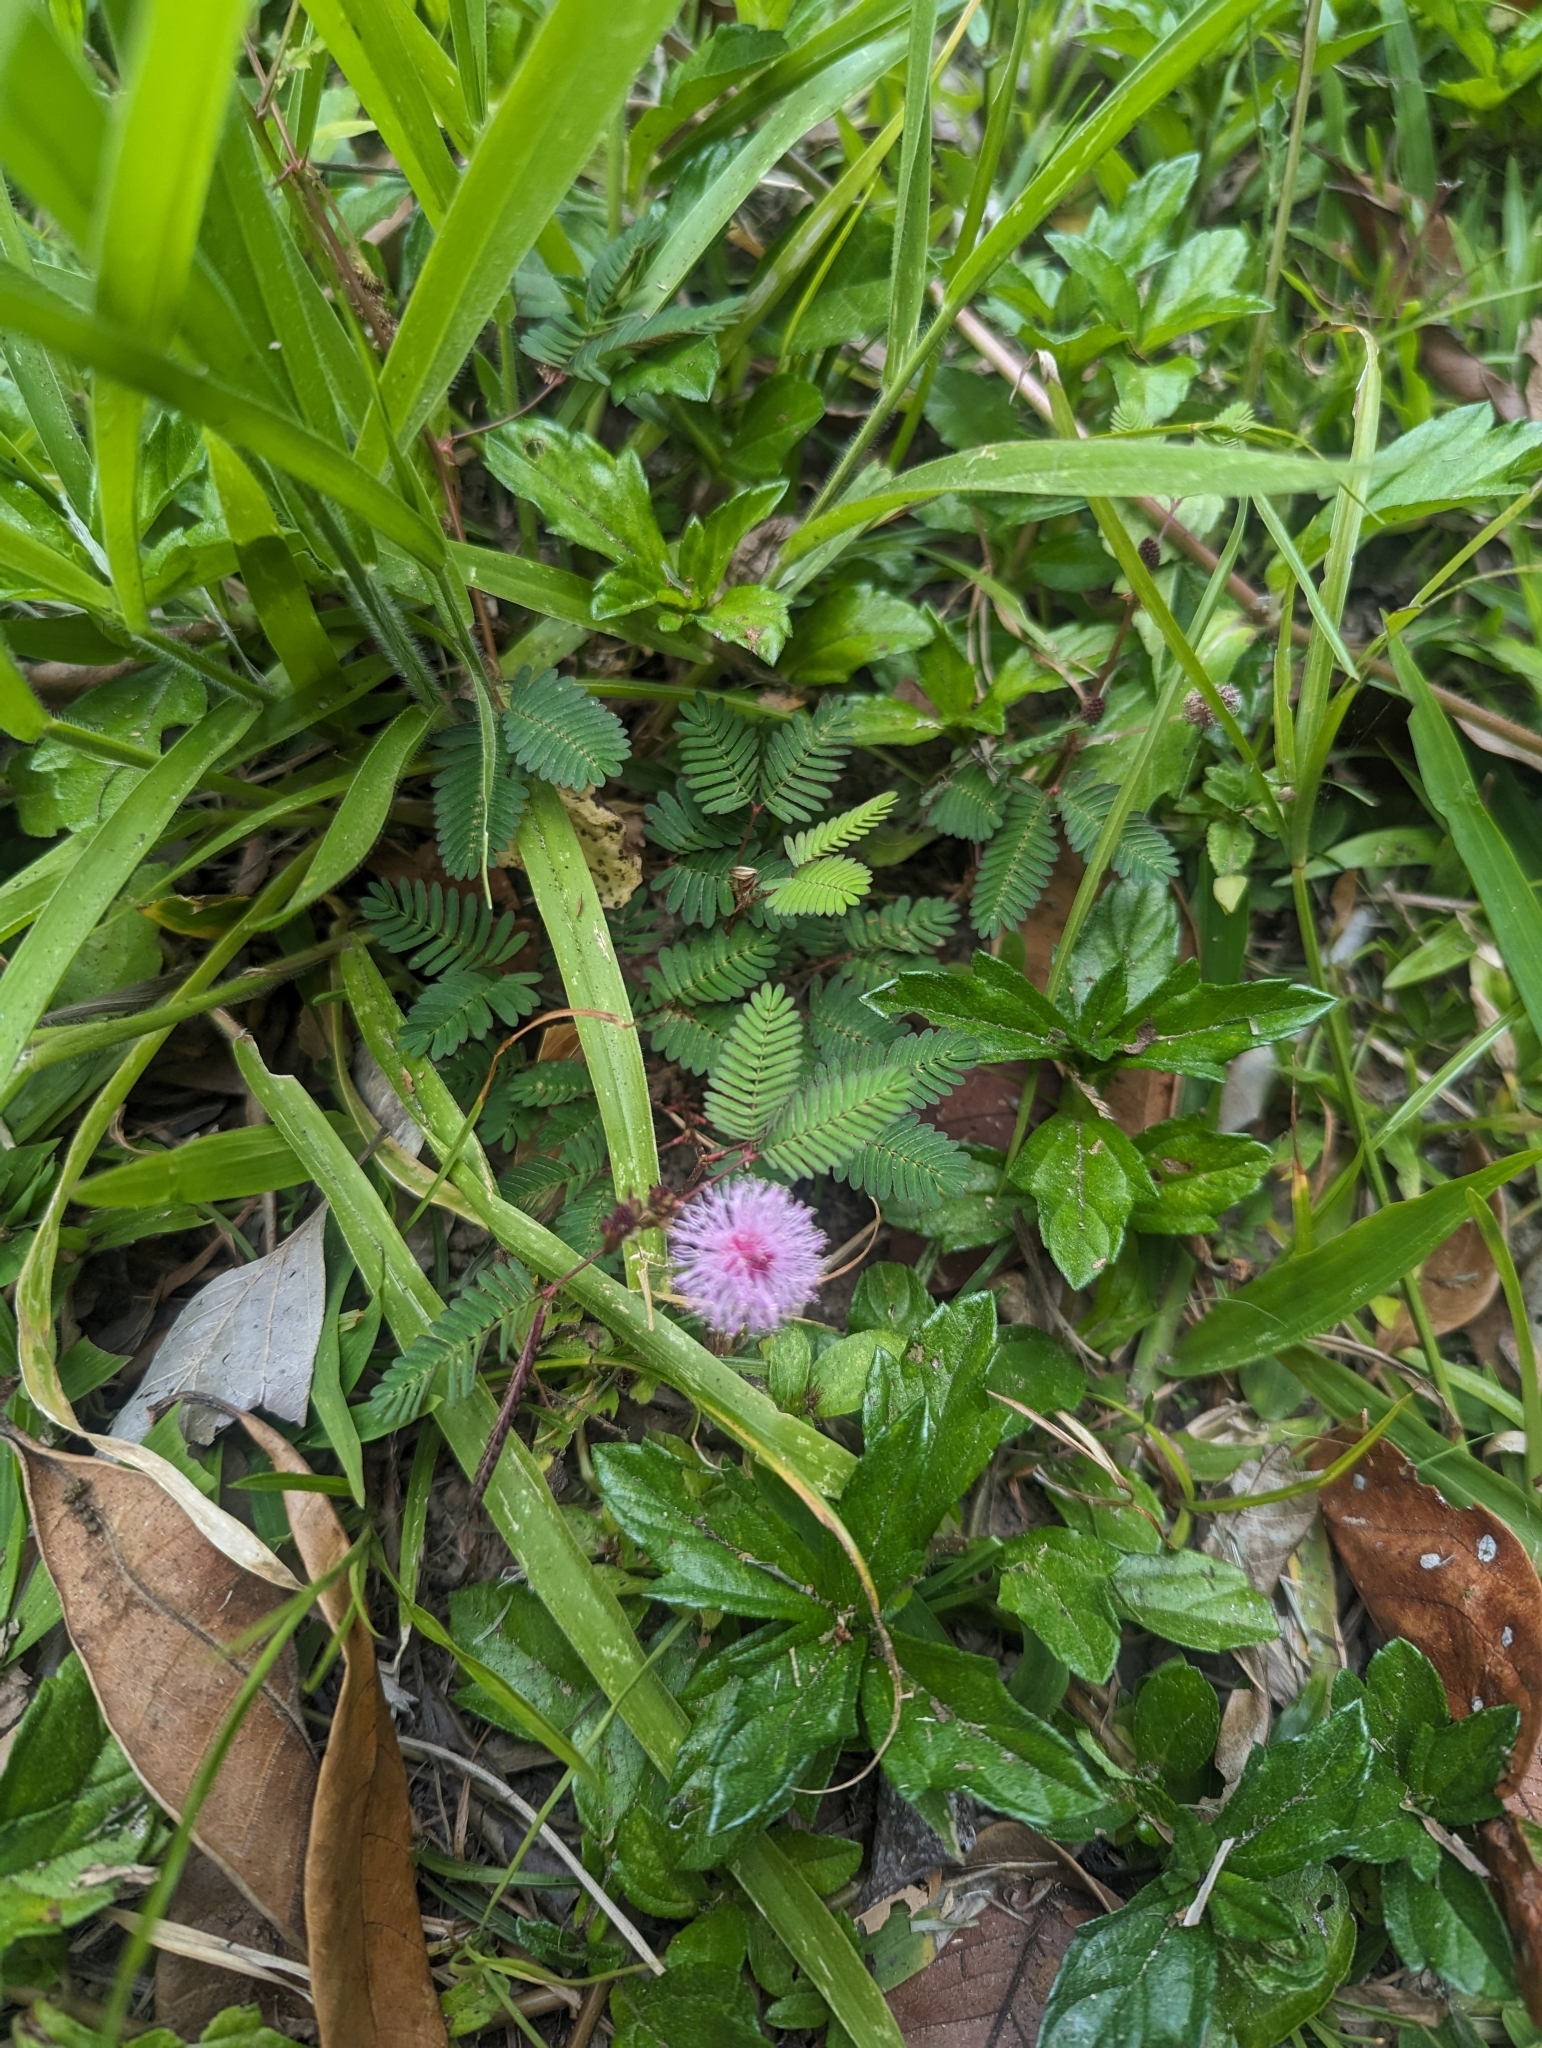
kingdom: Plantae
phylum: Tracheophyta
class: Magnoliopsida
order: Fabales
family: Fabaceae
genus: Mimosa
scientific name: Mimosa pudica
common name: Sensitive plant
